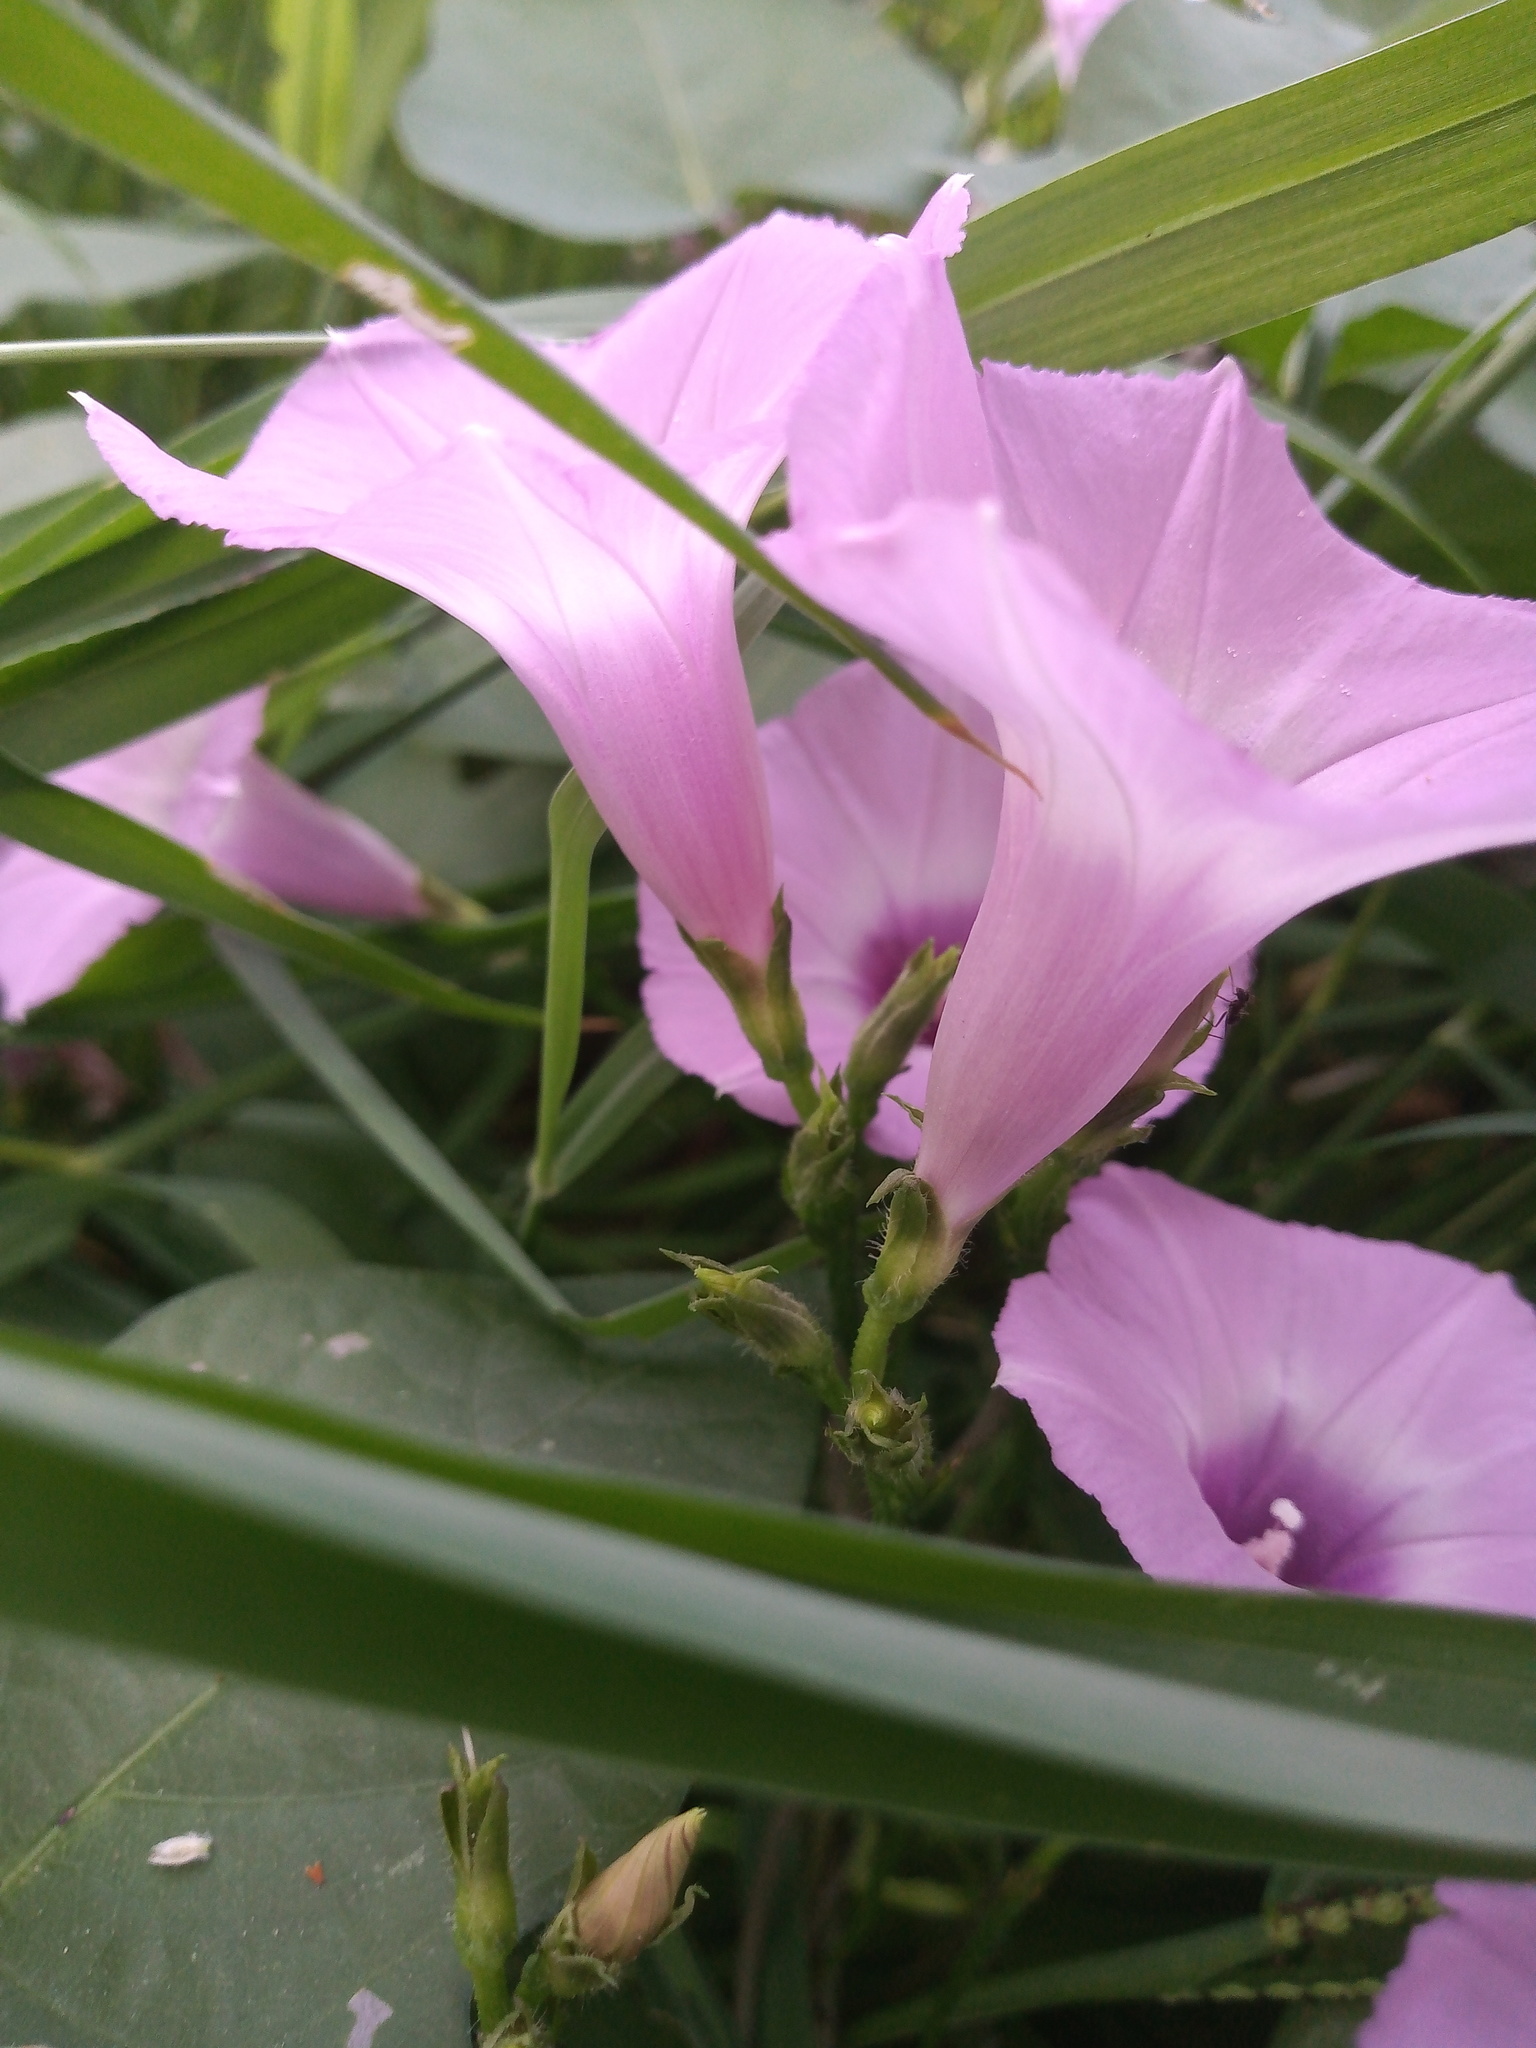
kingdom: Plantae
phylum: Tracheophyta
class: Magnoliopsida
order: Solanales
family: Convolvulaceae
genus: Ipomoea
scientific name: Ipomoea cordatotriloba
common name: Cotton morning glory
